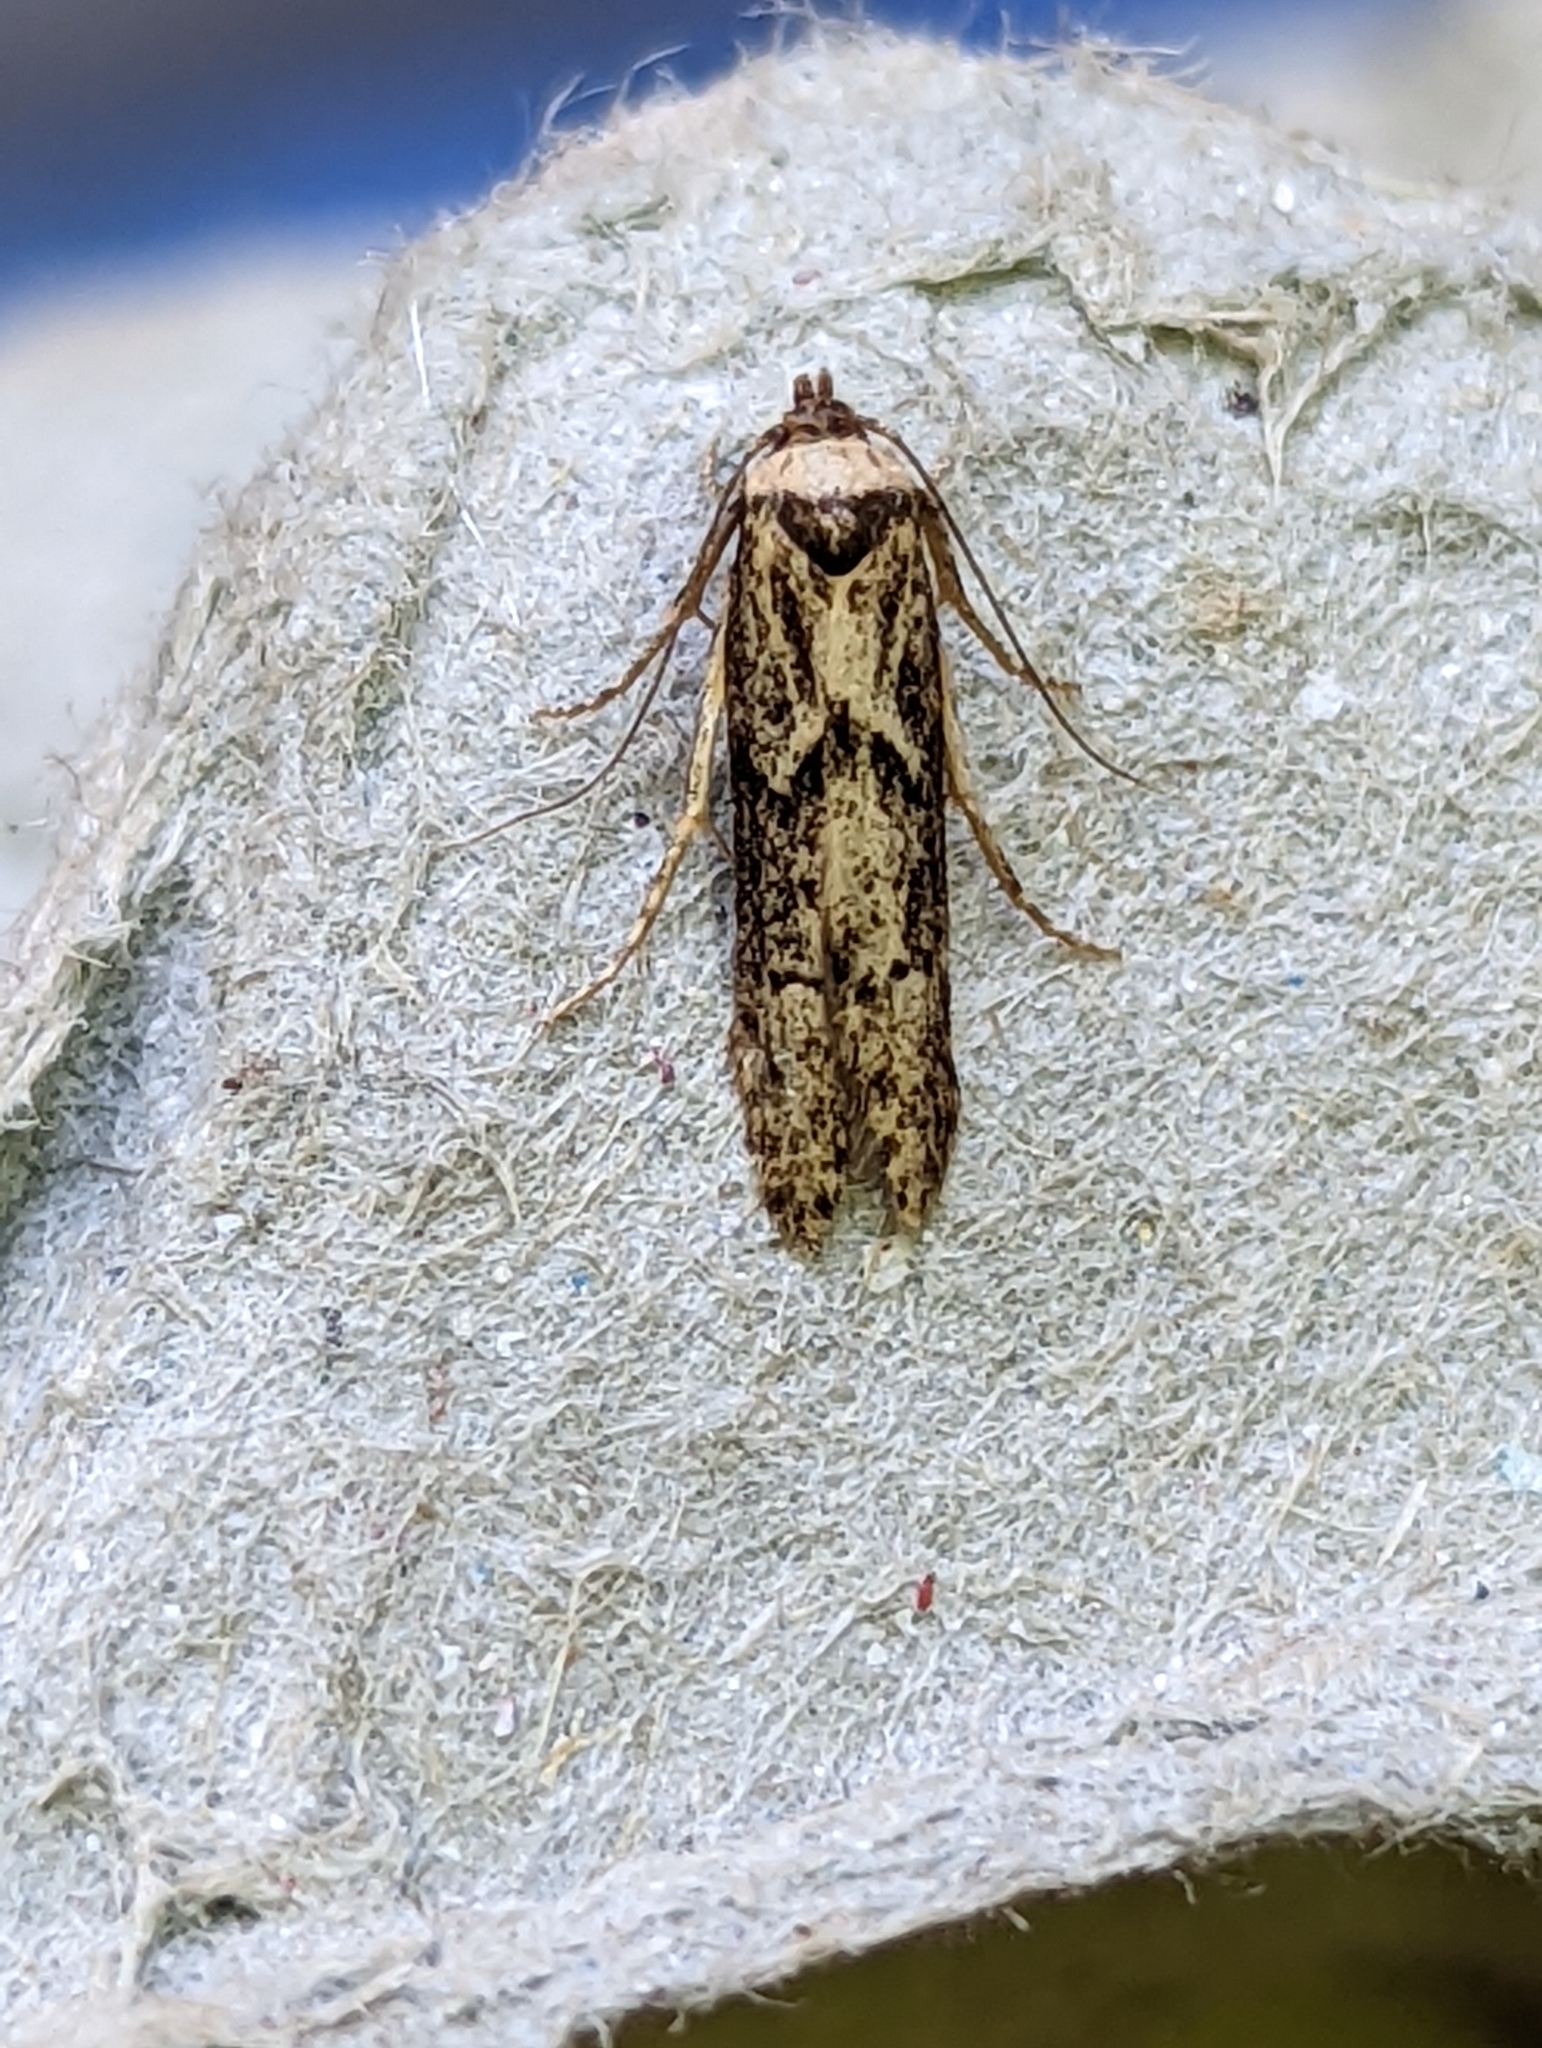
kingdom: Animalia
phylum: Arthropoda
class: Insecta
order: Lepidoptera
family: Blastobasidae
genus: Blastobasis
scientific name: Blastobasis adustella
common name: Dingy dowd
